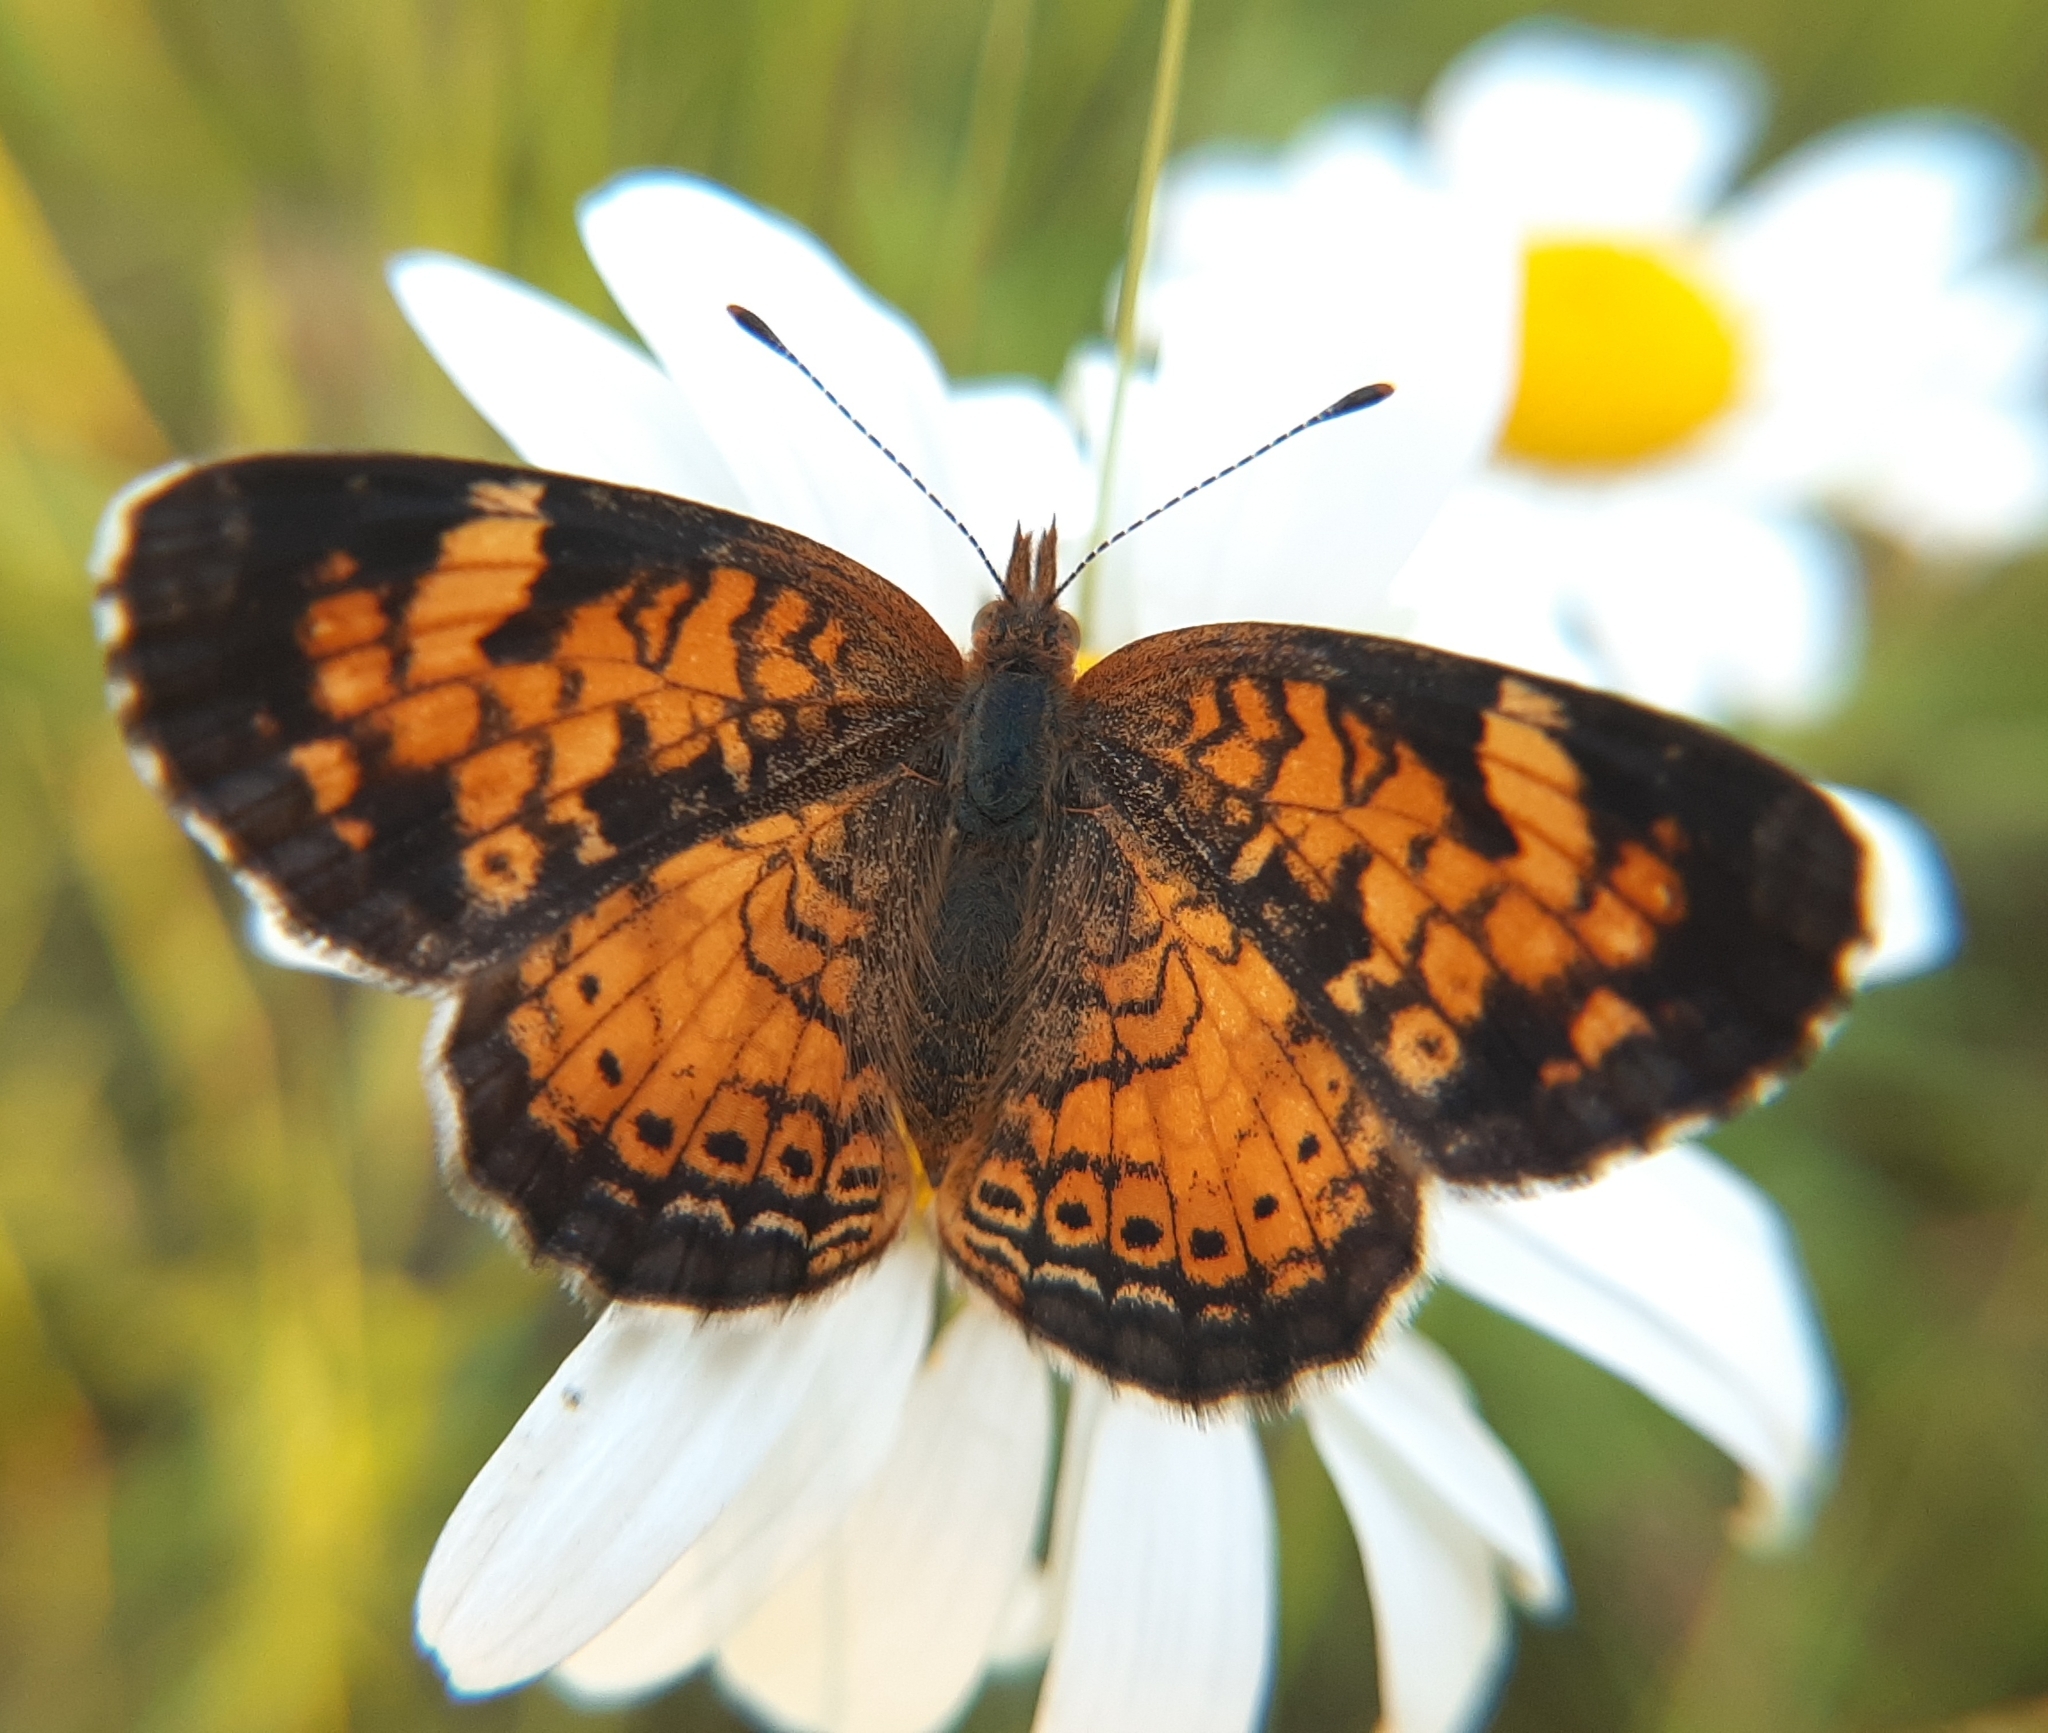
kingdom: Animalia
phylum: Arthropoda
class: Insecta
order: Lepidoptera
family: Nymphalidae
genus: Phyciodes
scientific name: Phyciodes tharos
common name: Pearl crescent
